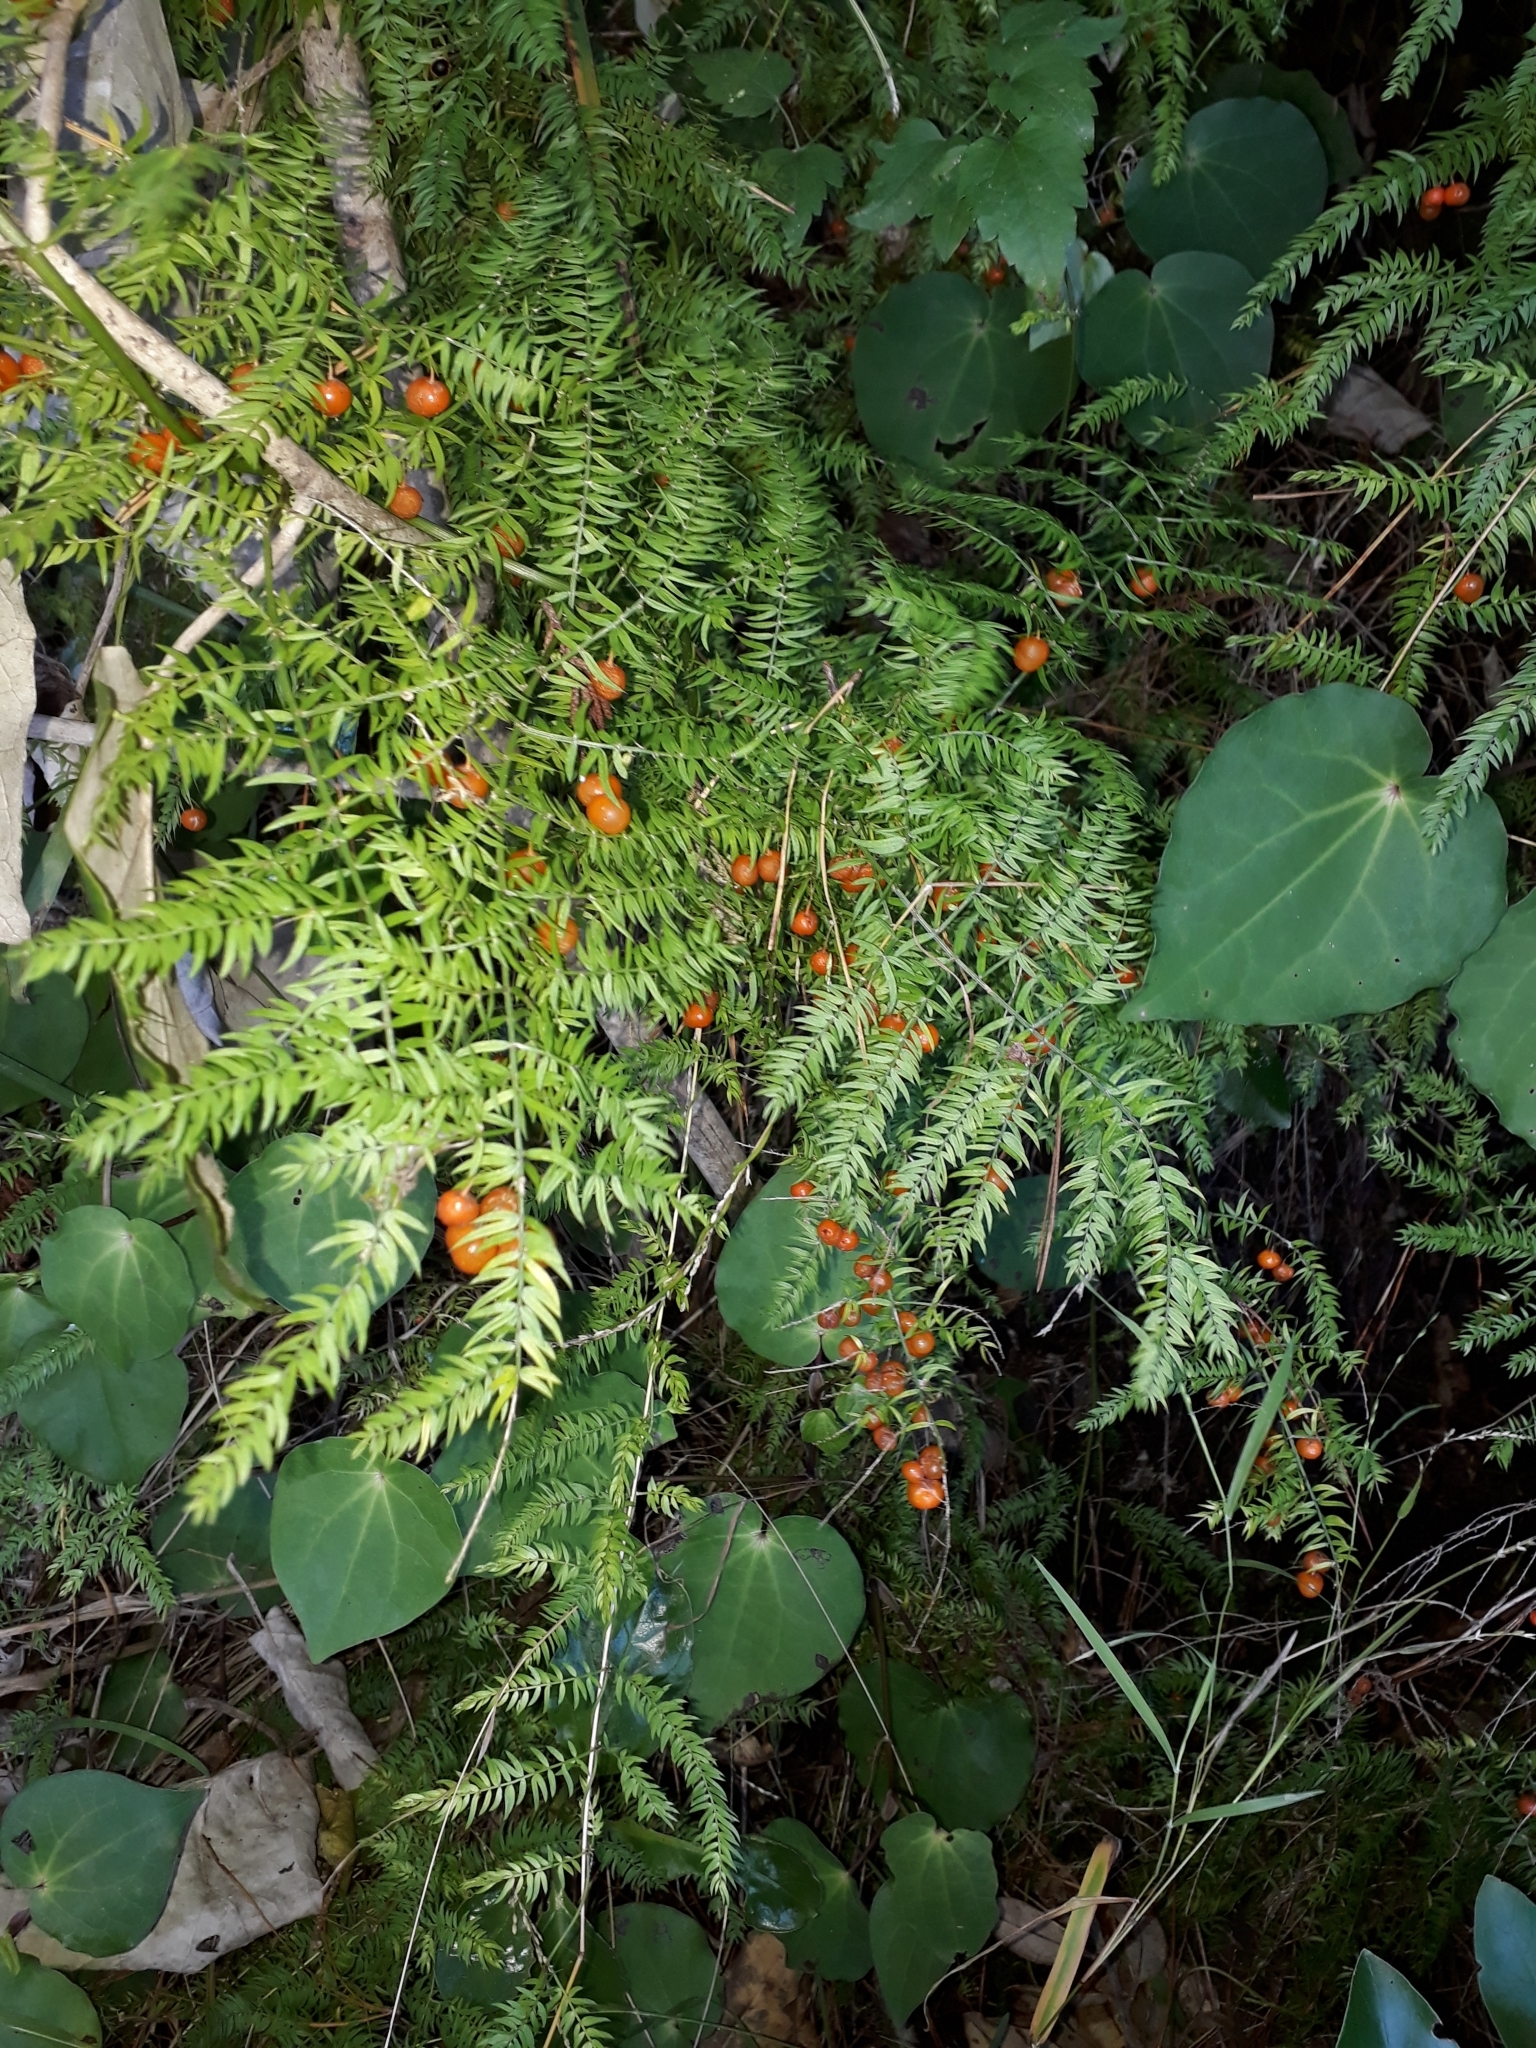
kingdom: Plantae
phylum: Tracheophyta
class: Liliopsida
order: Asparagales
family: Asparagaceae
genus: Asparagus
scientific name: Asparagus scandens
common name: Asparagus-fern
